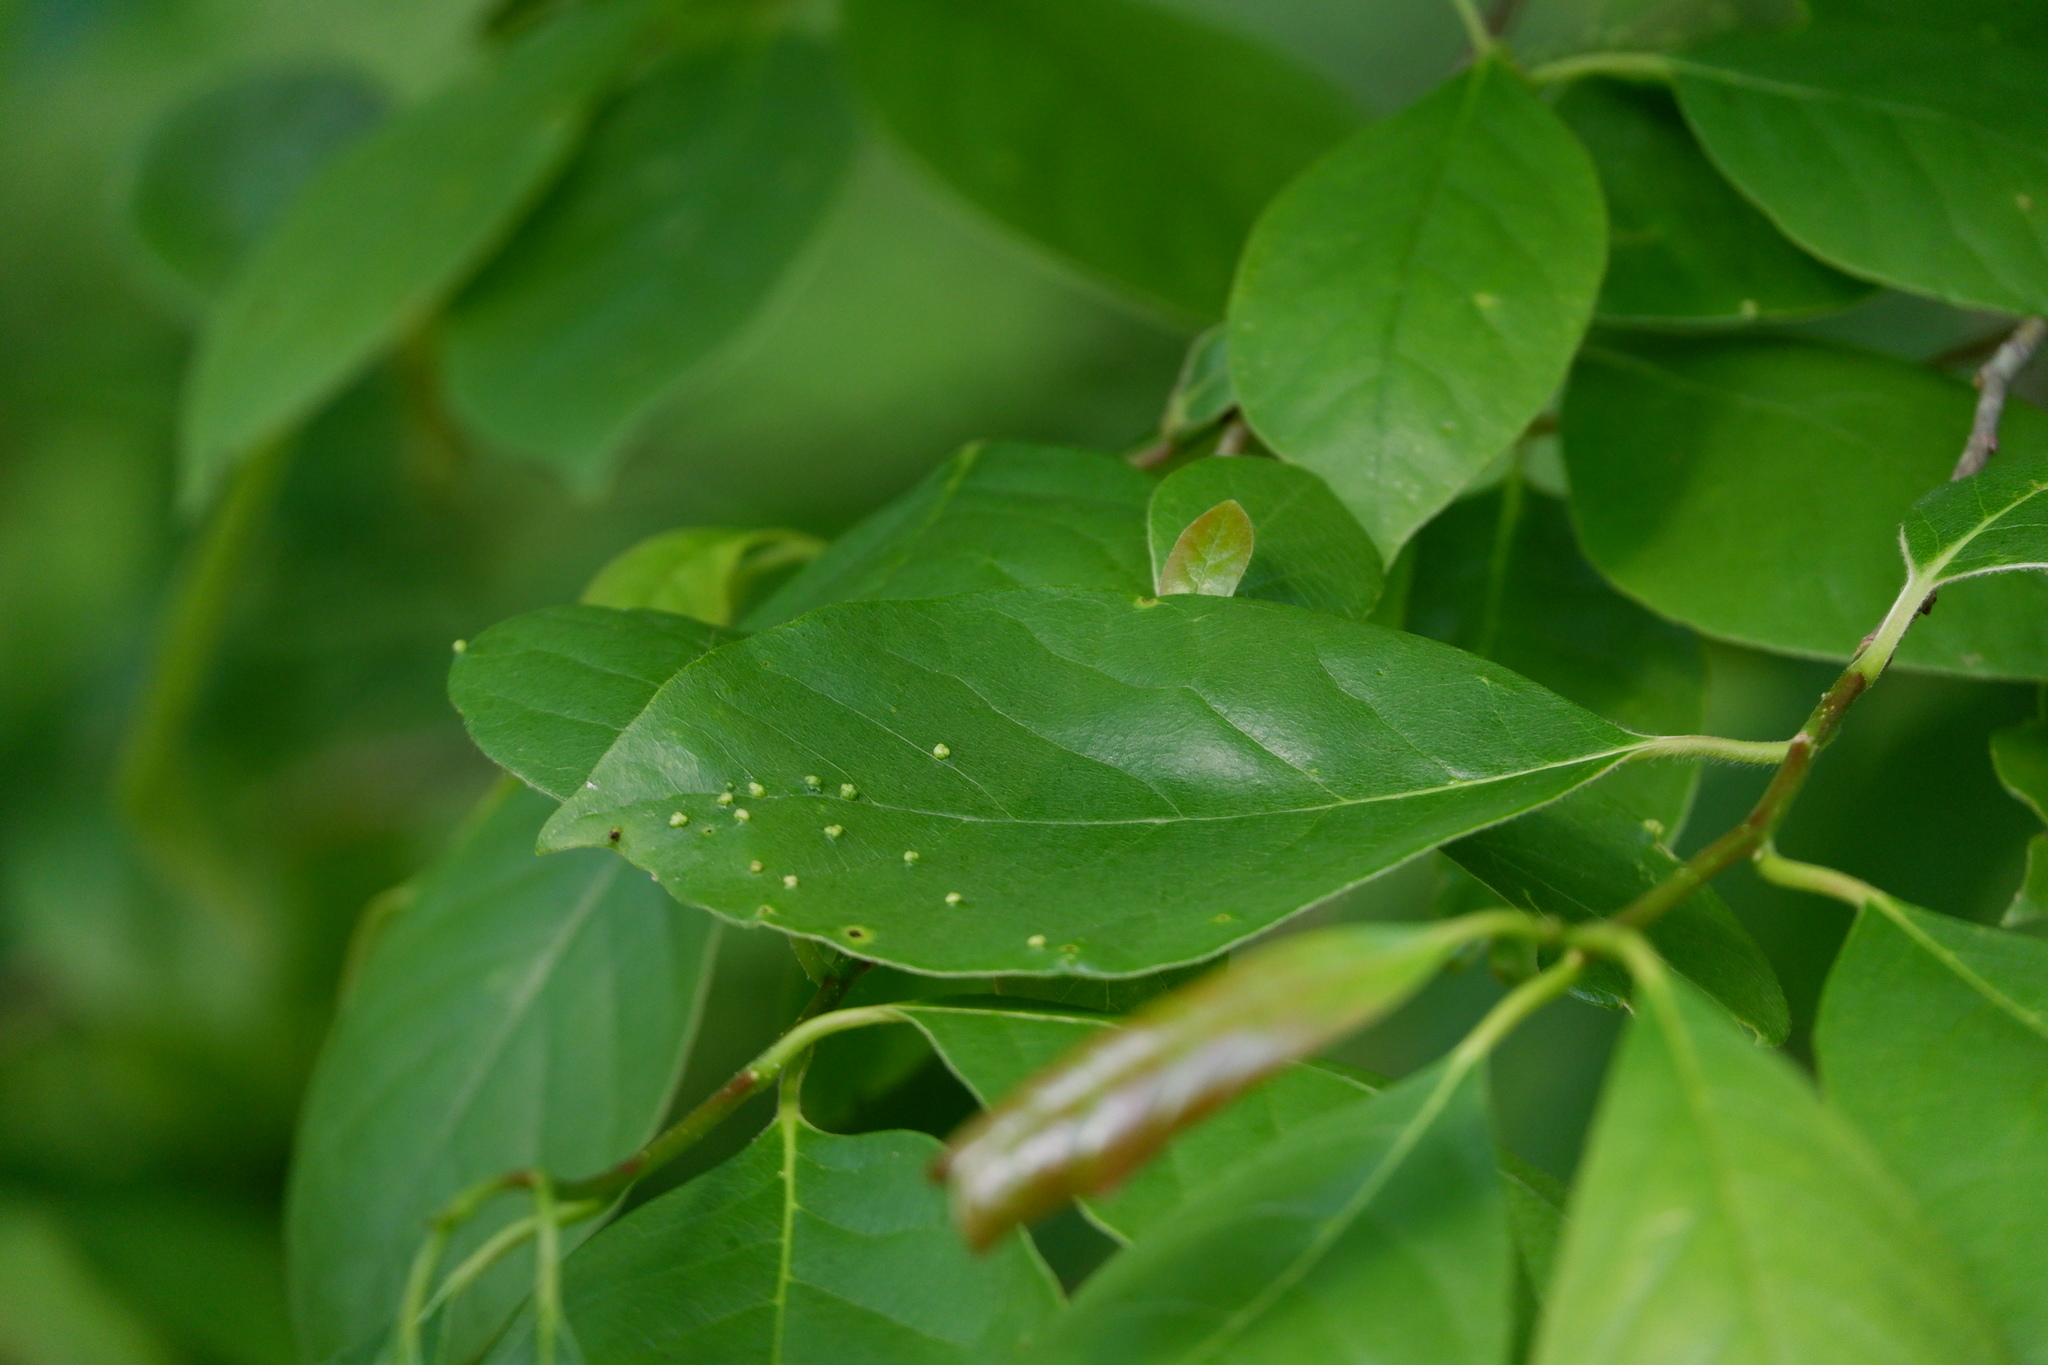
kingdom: Animalia
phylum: Arthropoda
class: Arachnida
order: Trombidiformes
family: Eriophyidae
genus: Aceria
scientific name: Aceria
